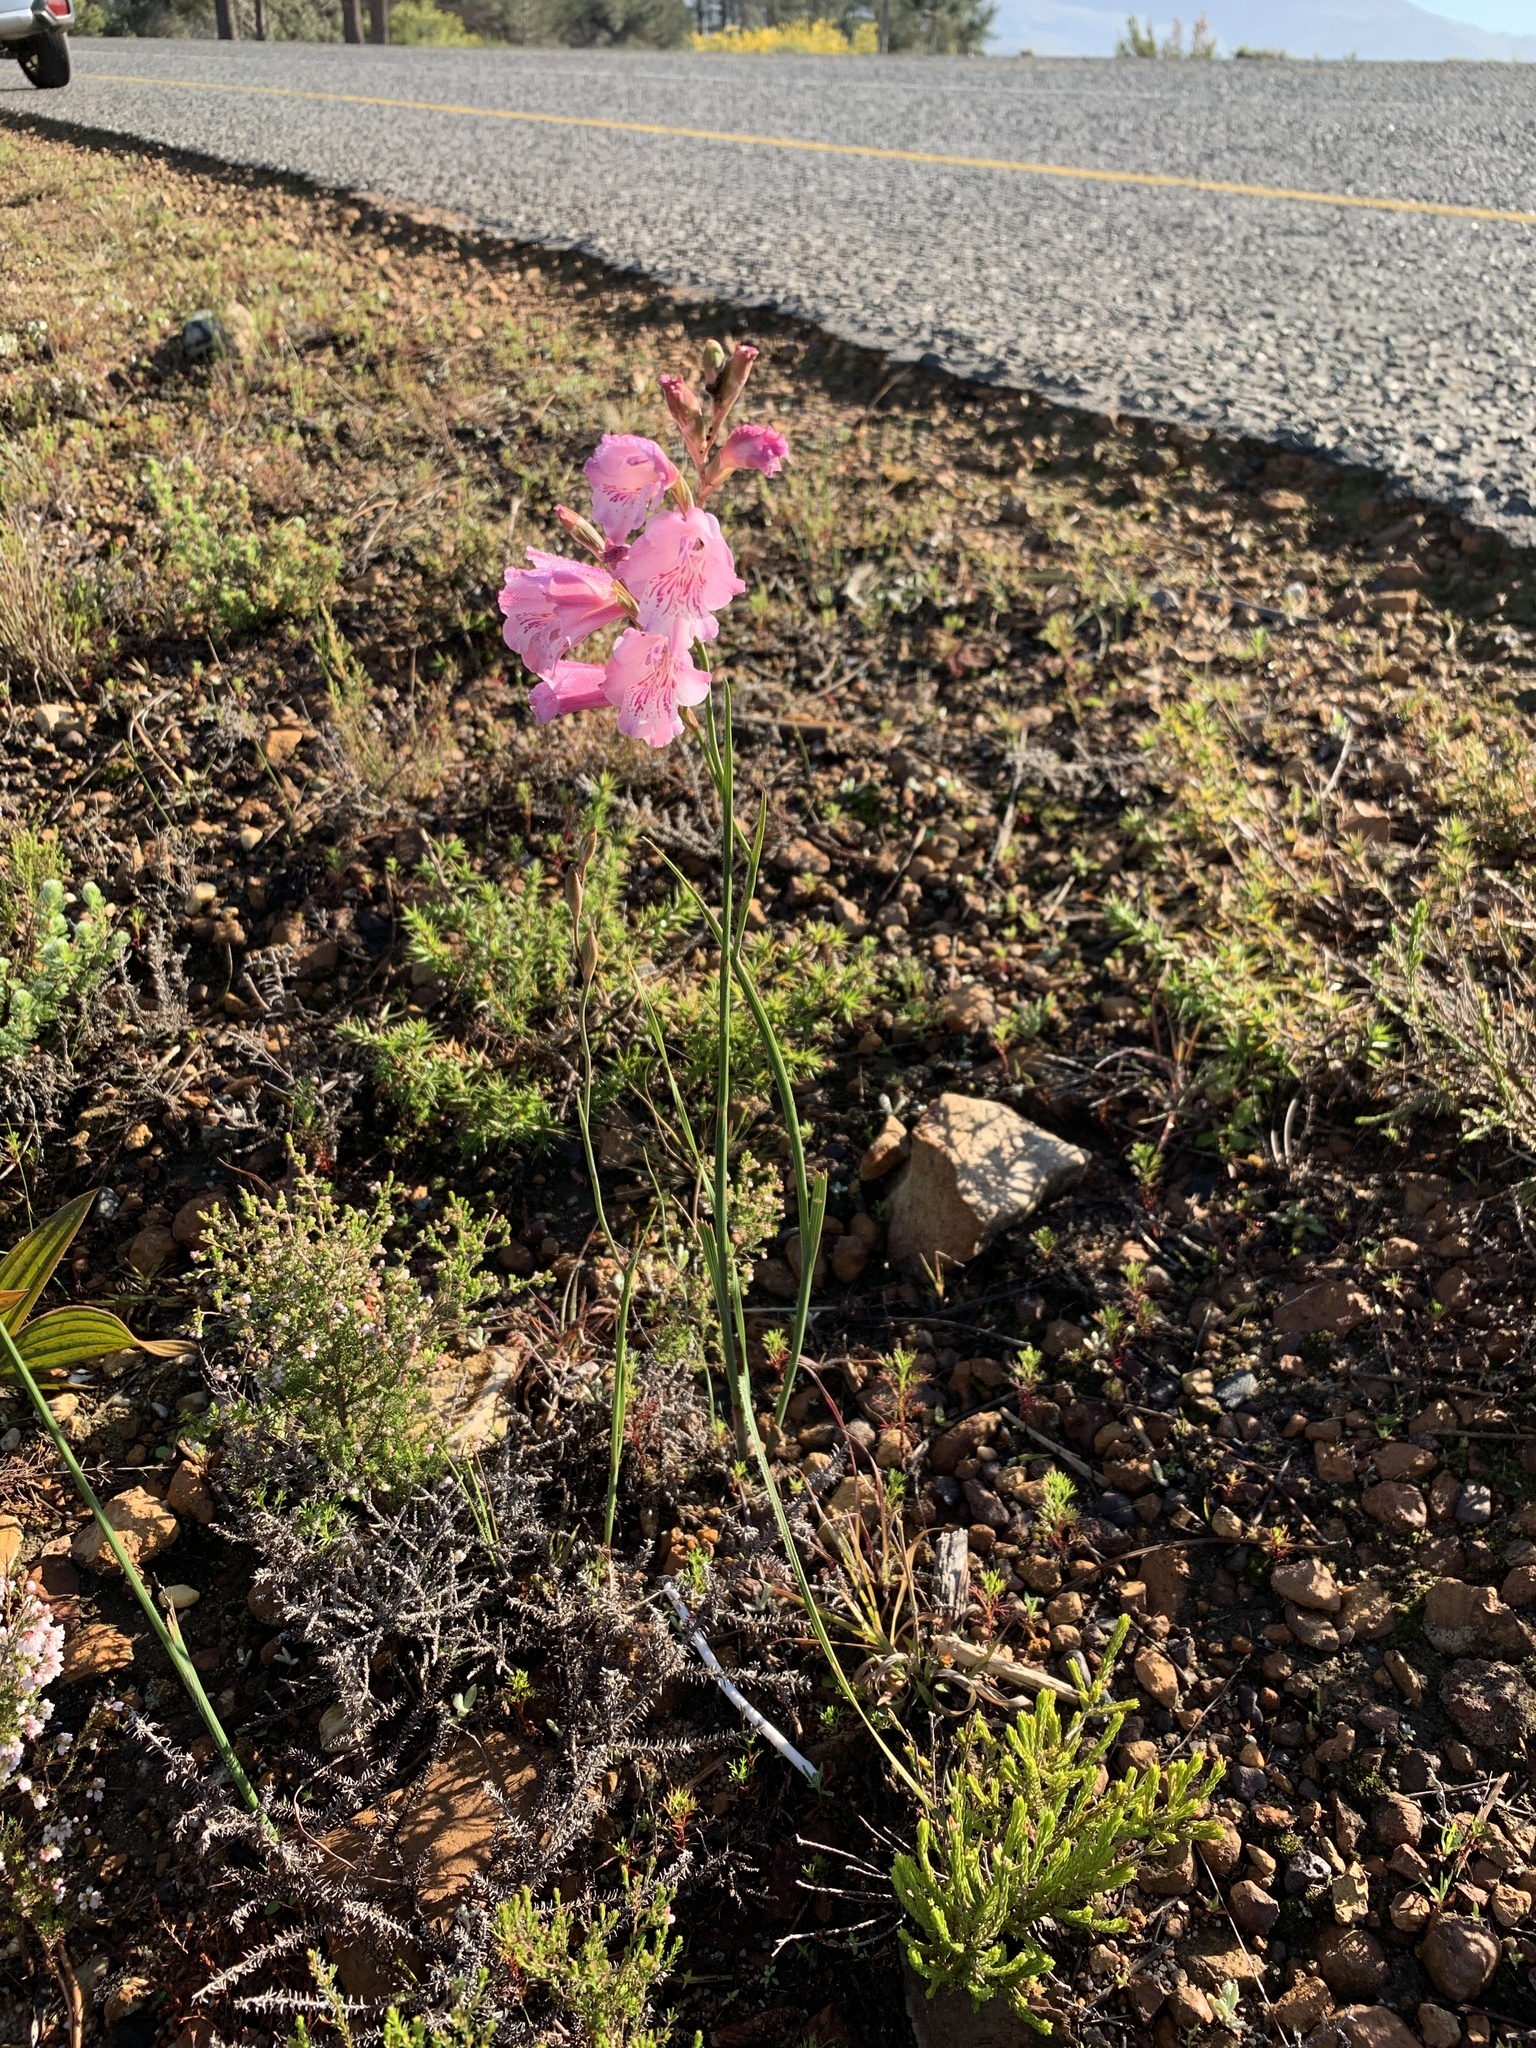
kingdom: Plantae
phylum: Tracheophyta
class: Liliopsida
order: Asparagales
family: Iridaceae
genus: Gladiolus
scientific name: Gladiolus hirsutus
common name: Small pink afrikaner
